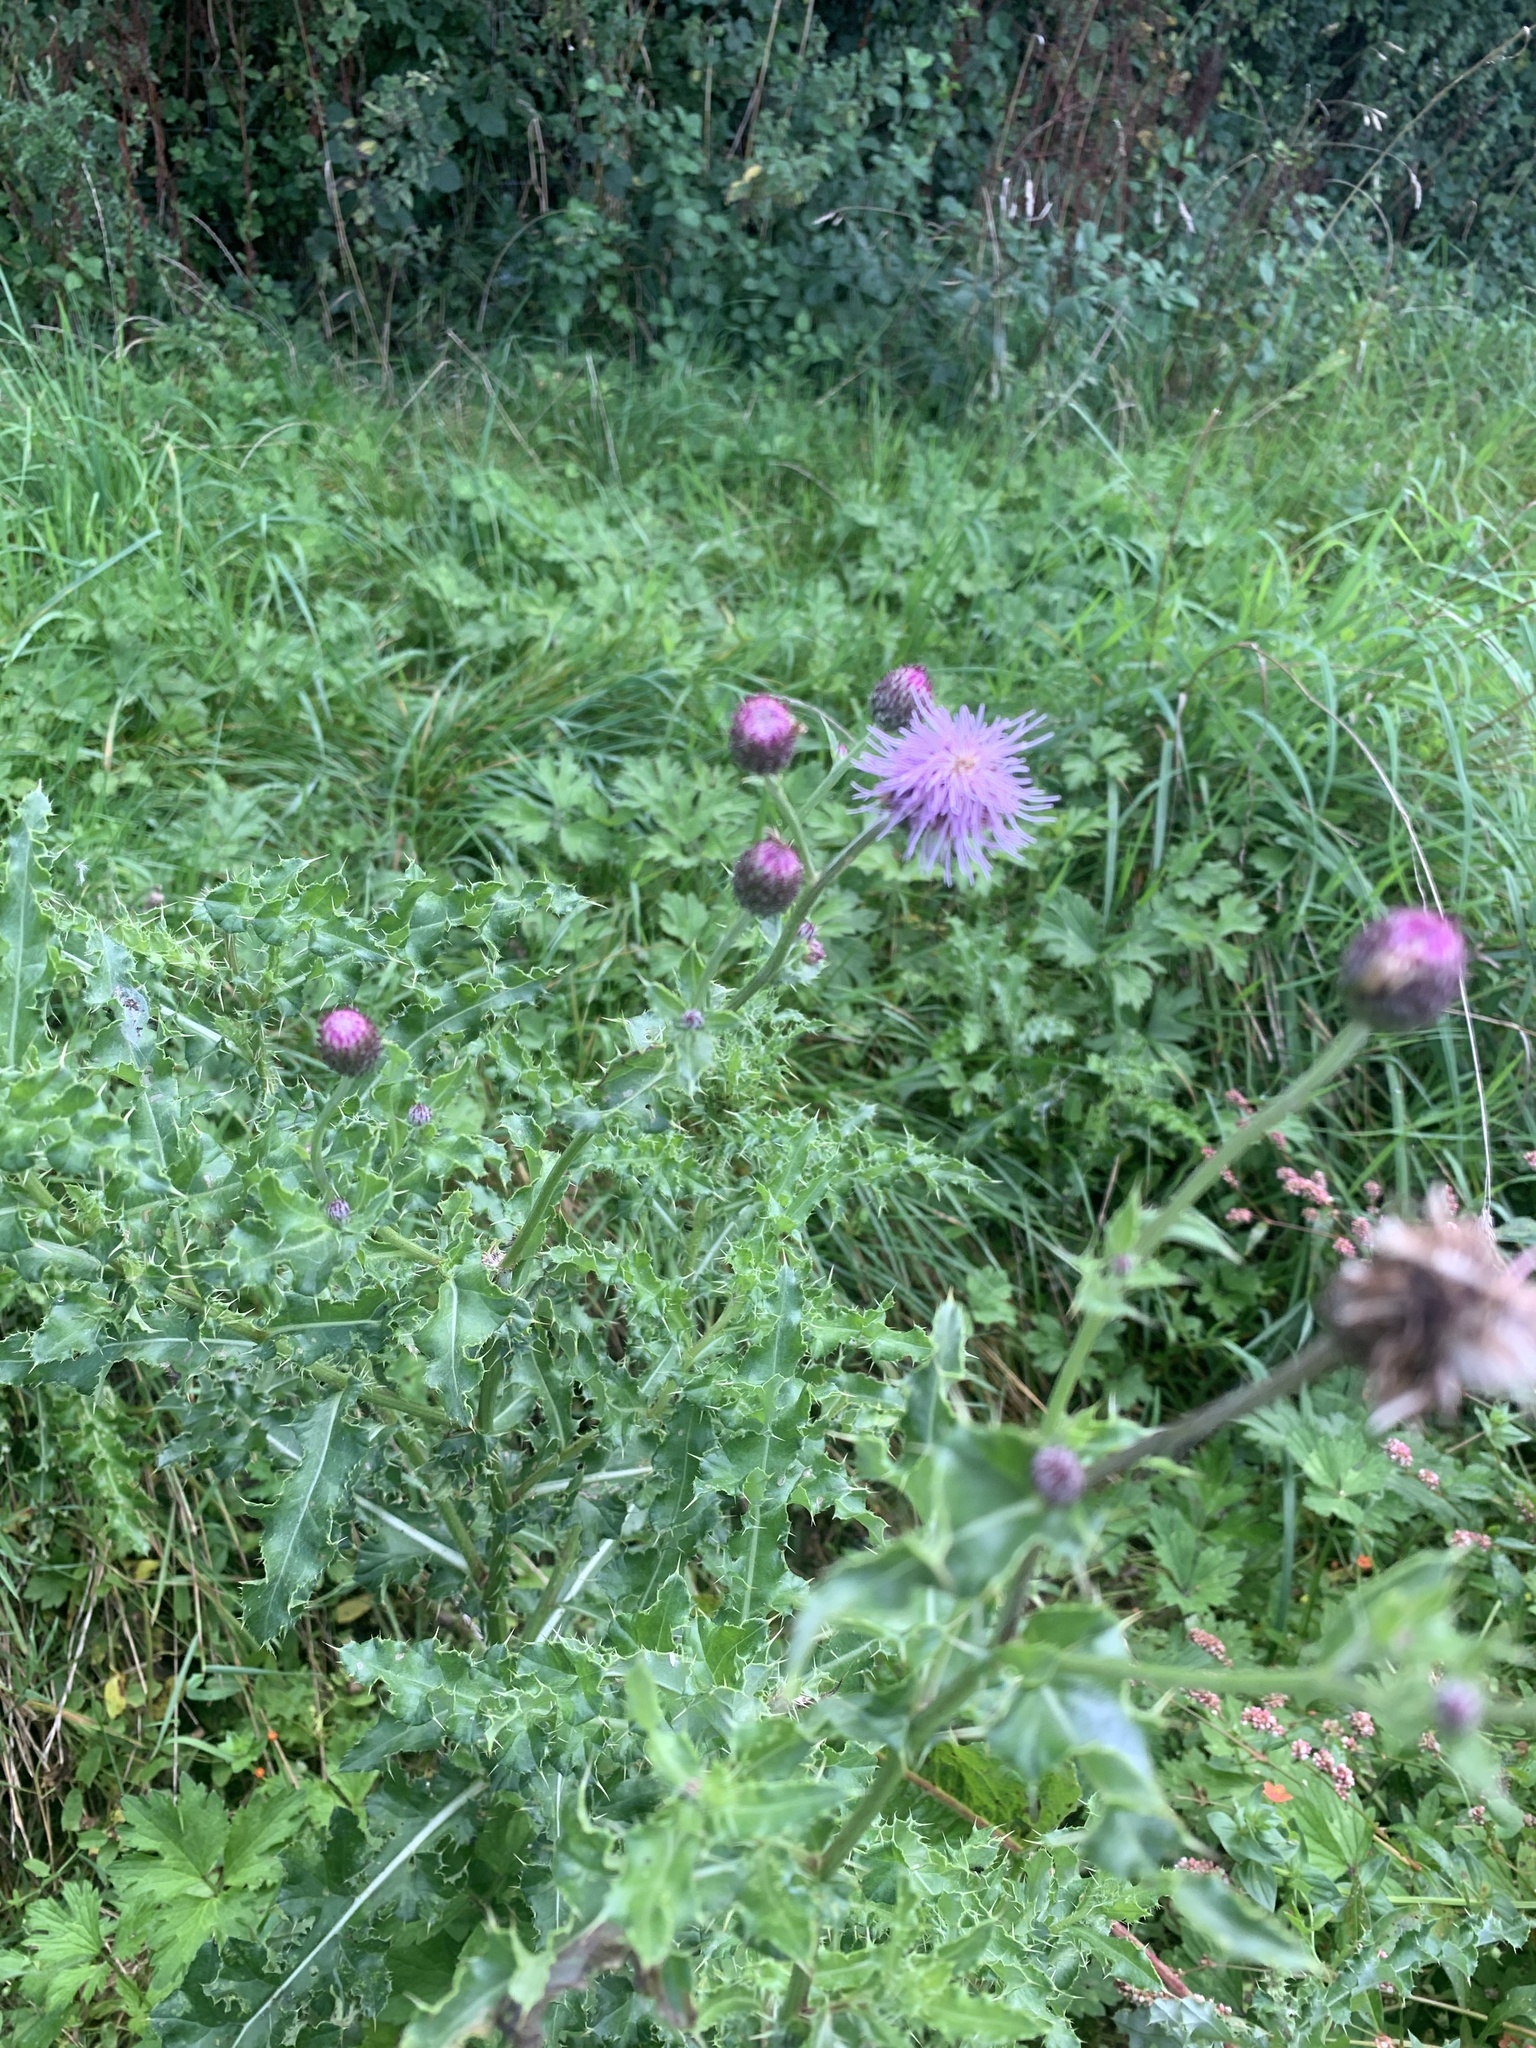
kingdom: Plantae
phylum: Tracheophyta
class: Magnoliopsida
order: Asterales
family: Asteraceae
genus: Cirsium
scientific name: Cirsium arvense
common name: Creeping thistle
